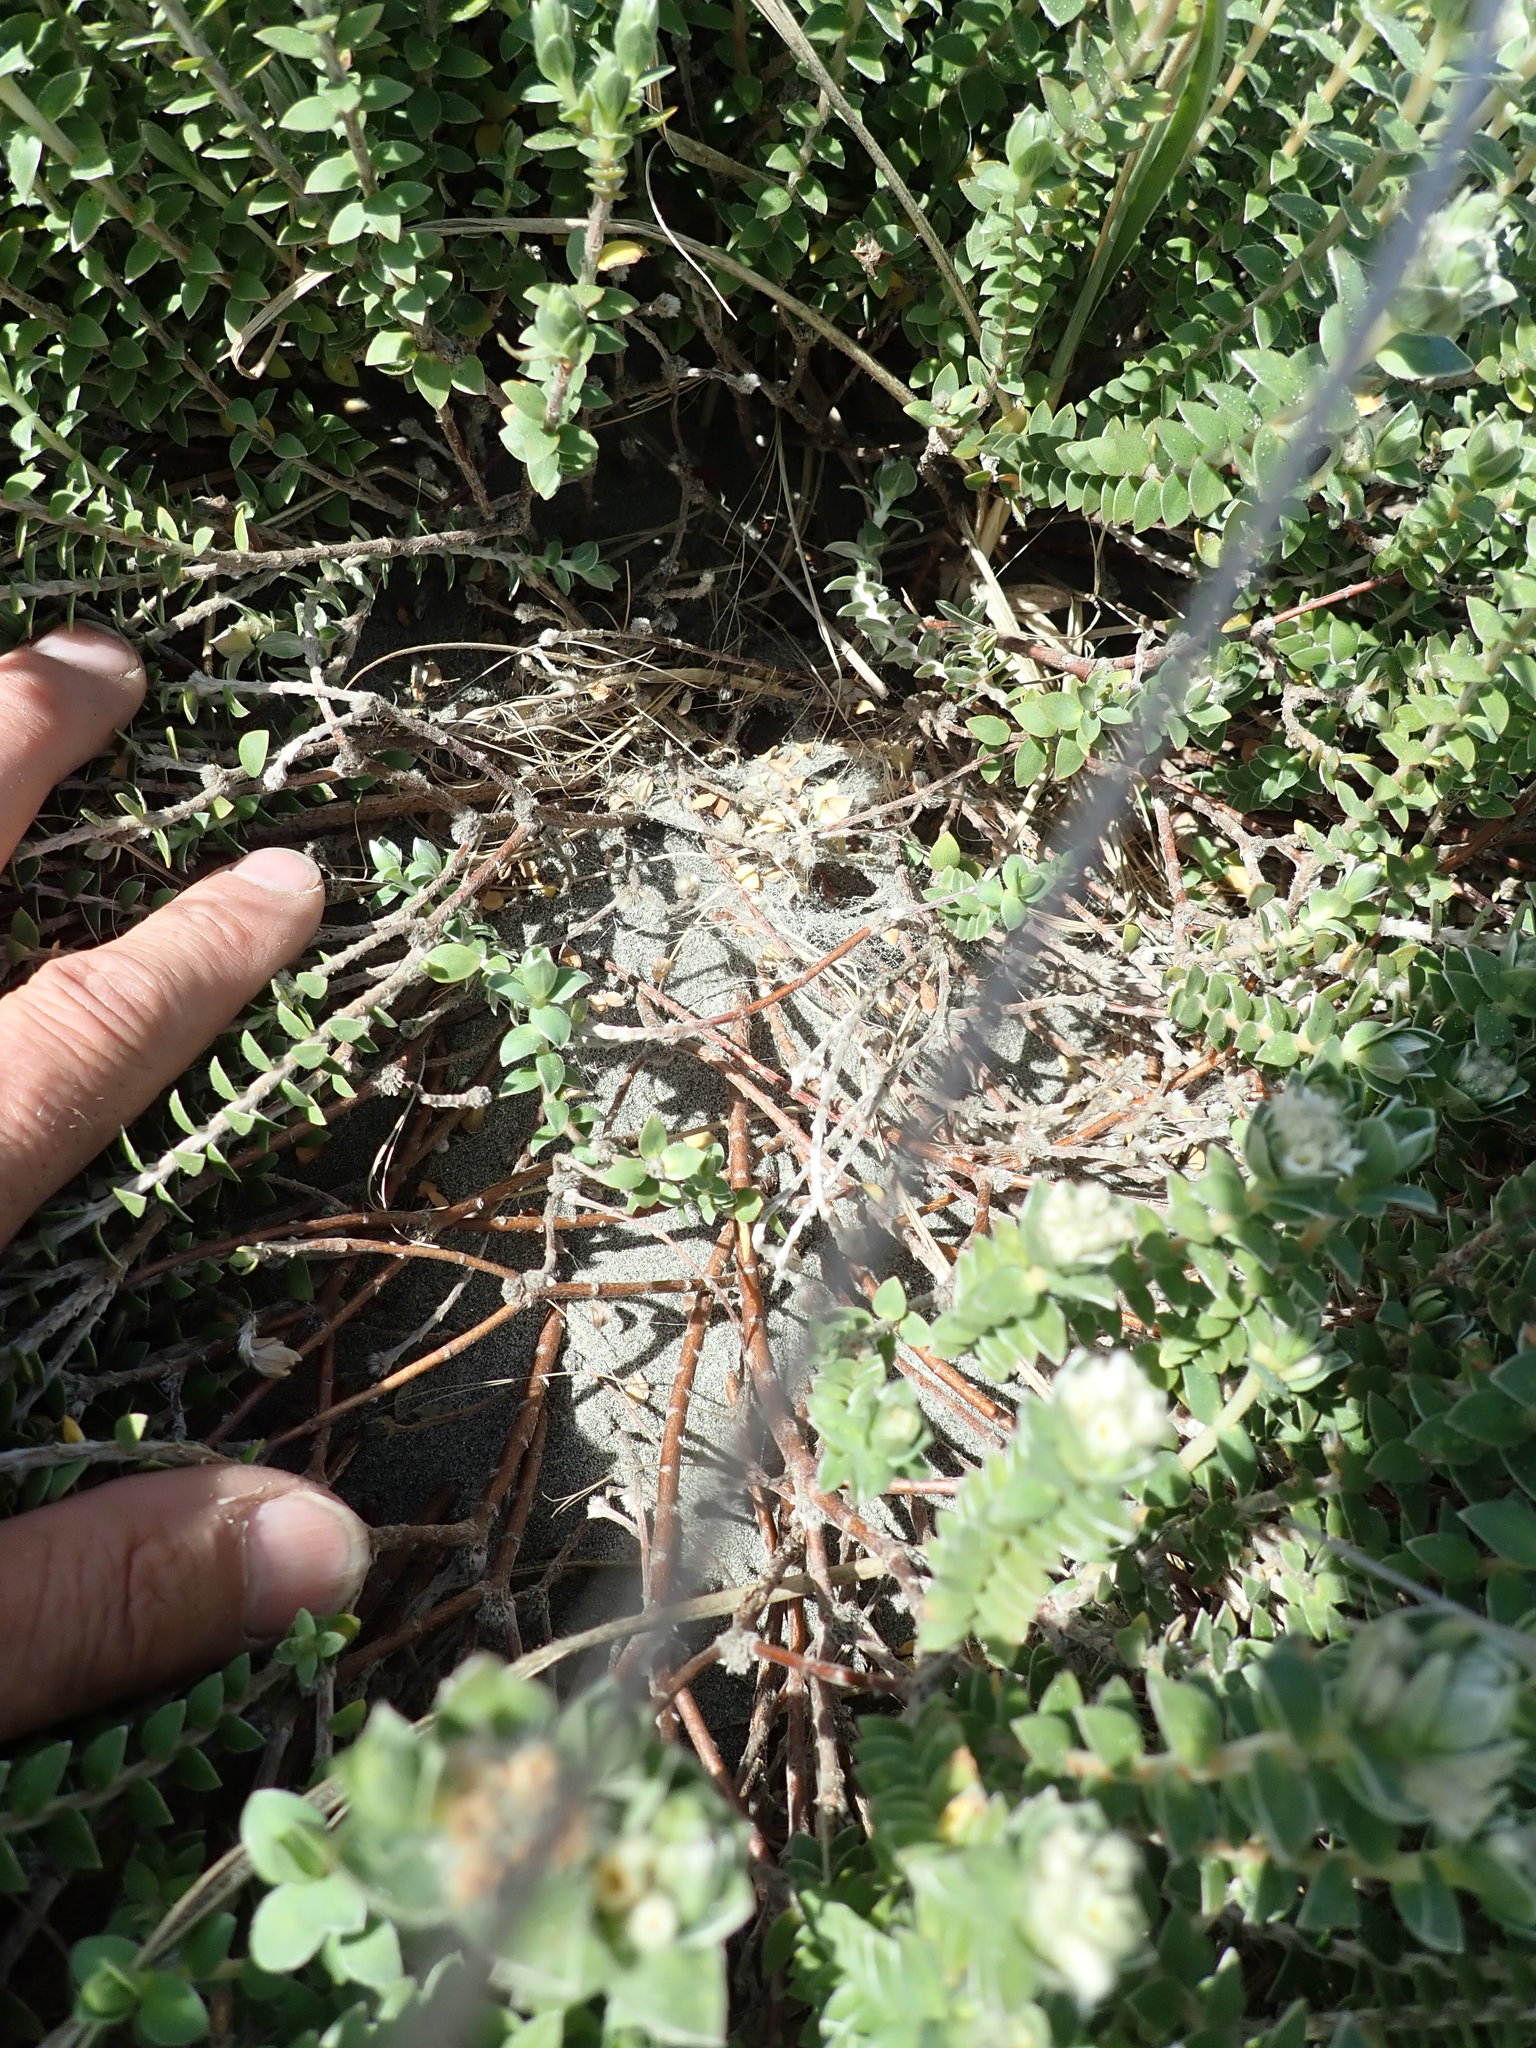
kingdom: Animalia
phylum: Arthropoda
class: Arachnida
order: Araneae
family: Theridiidae
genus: Latrodectus
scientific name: Latrodectus katipo
